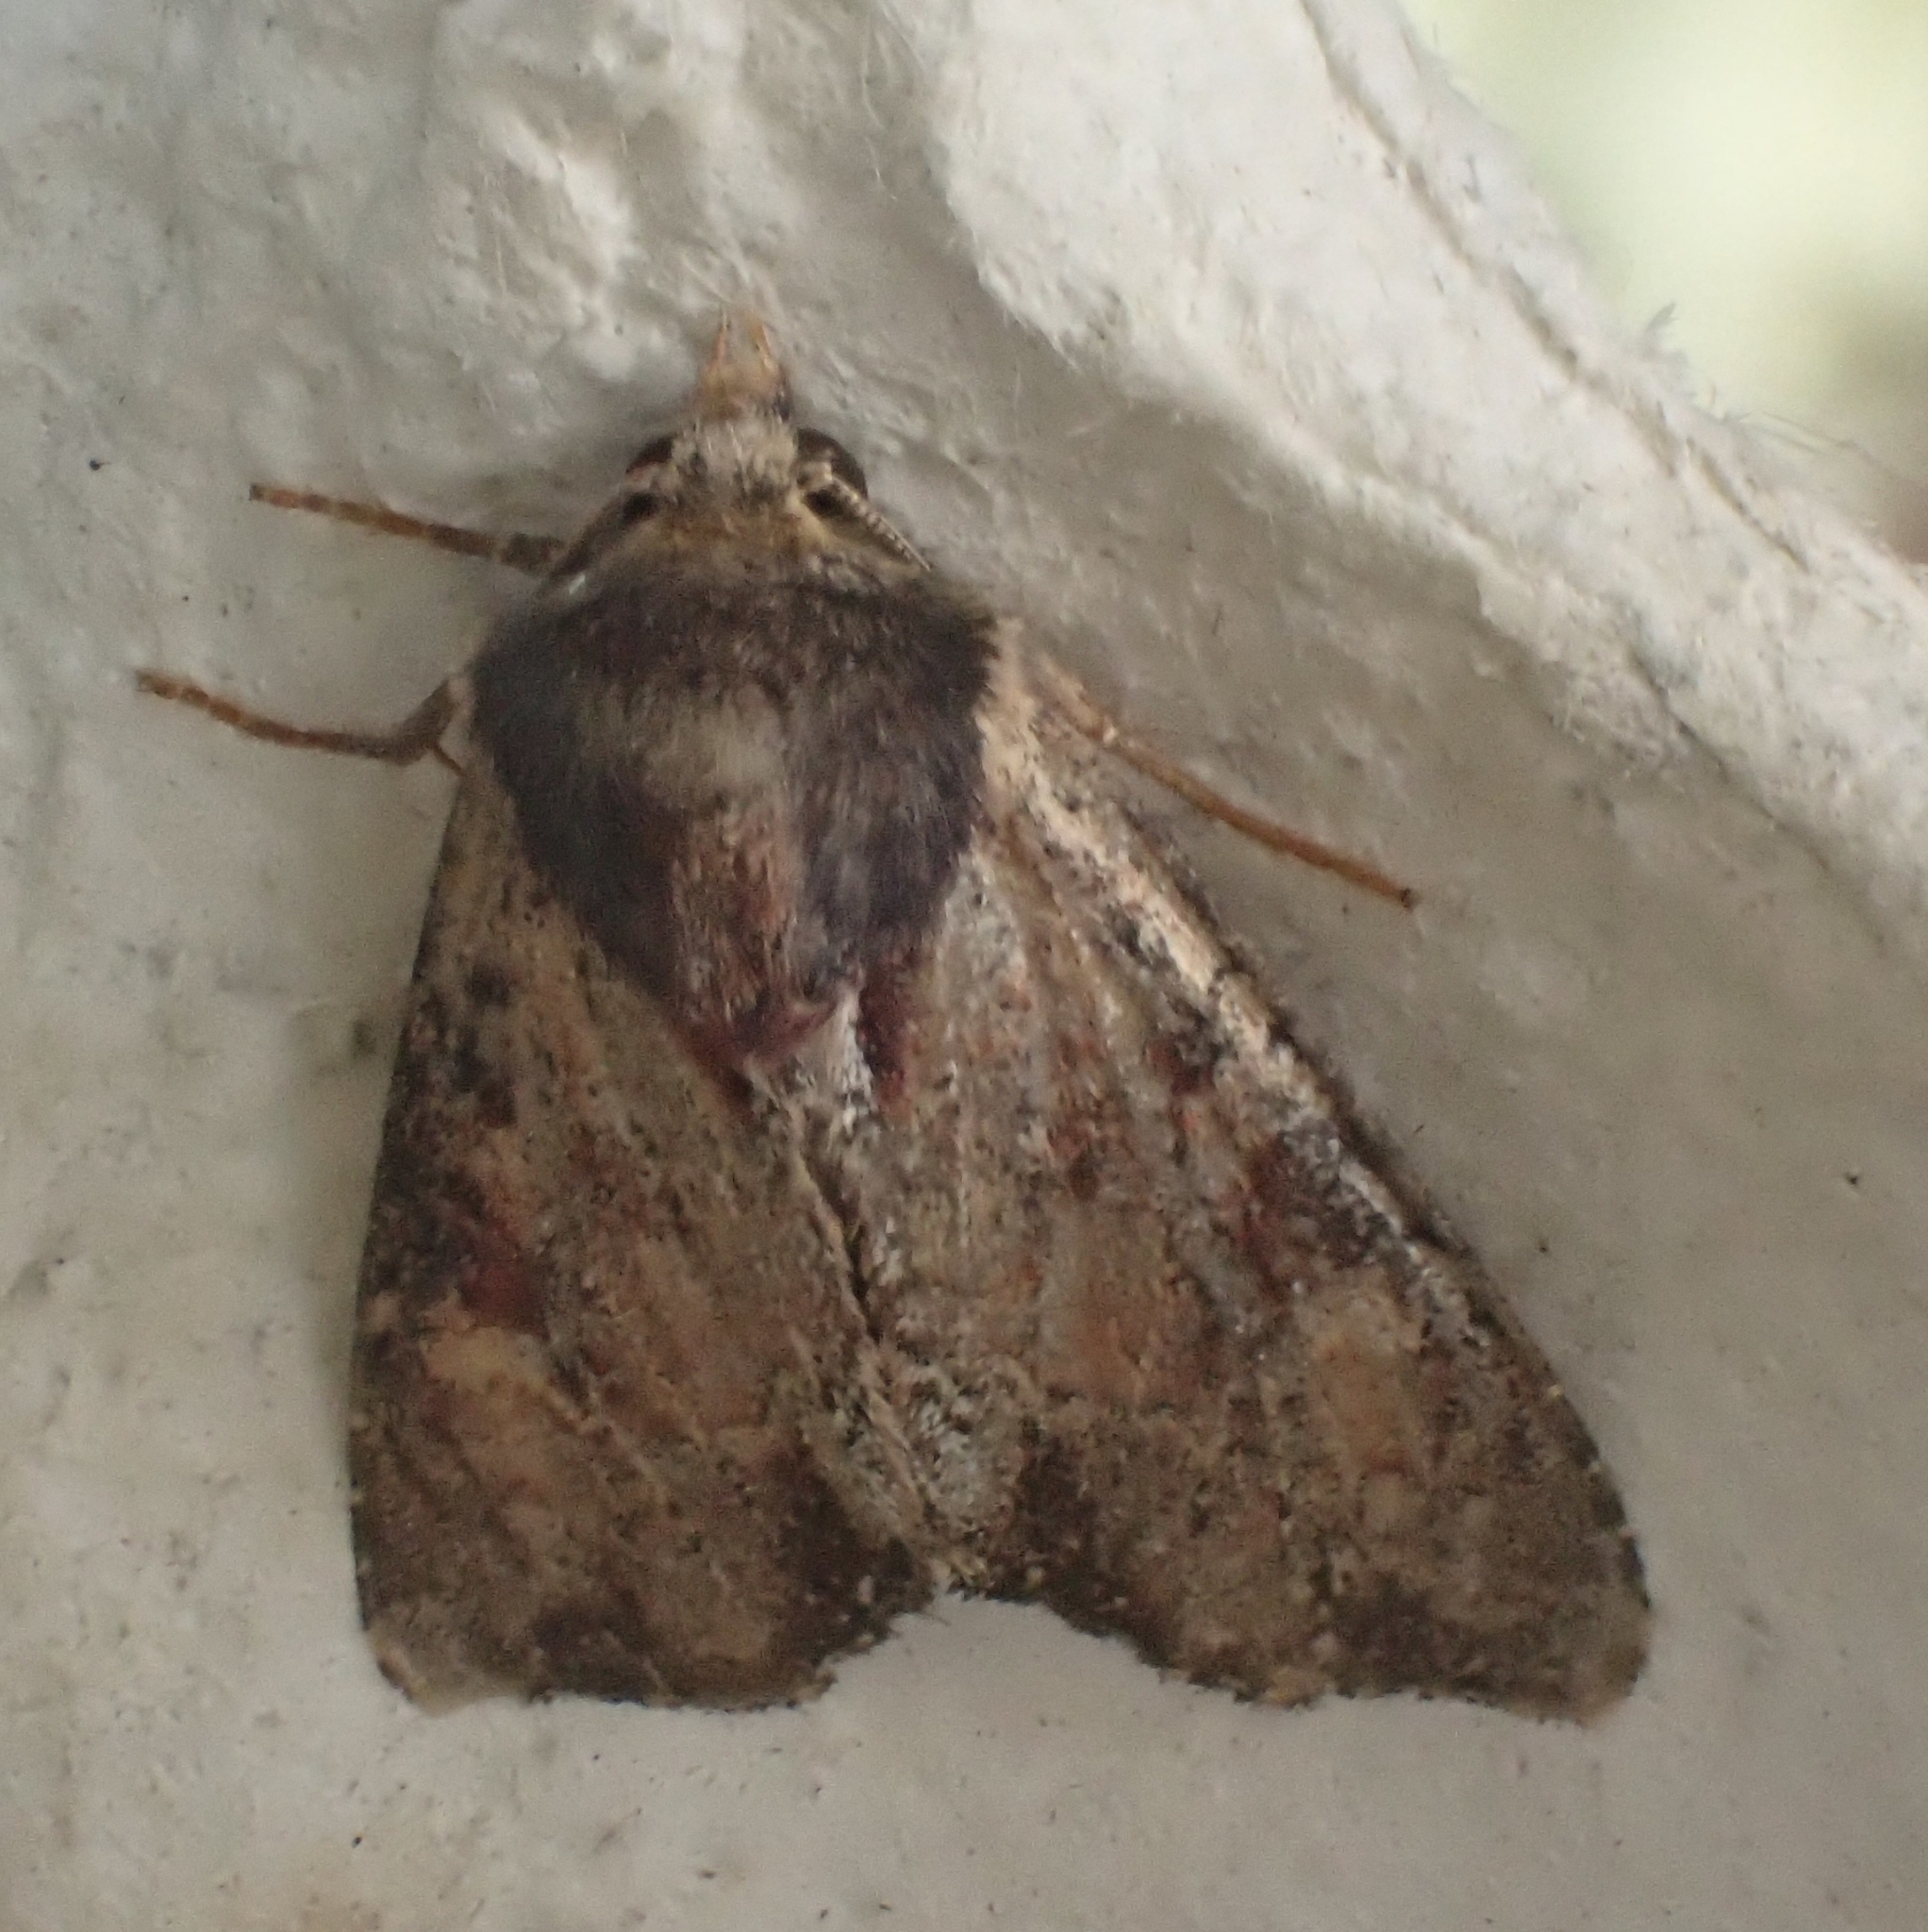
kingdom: Animalia
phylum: Arthropoda
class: Insecta
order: Lepidoptera
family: Noctuidae
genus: Apamea
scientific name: Apamea crenata
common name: Clouded-bordered brindle
